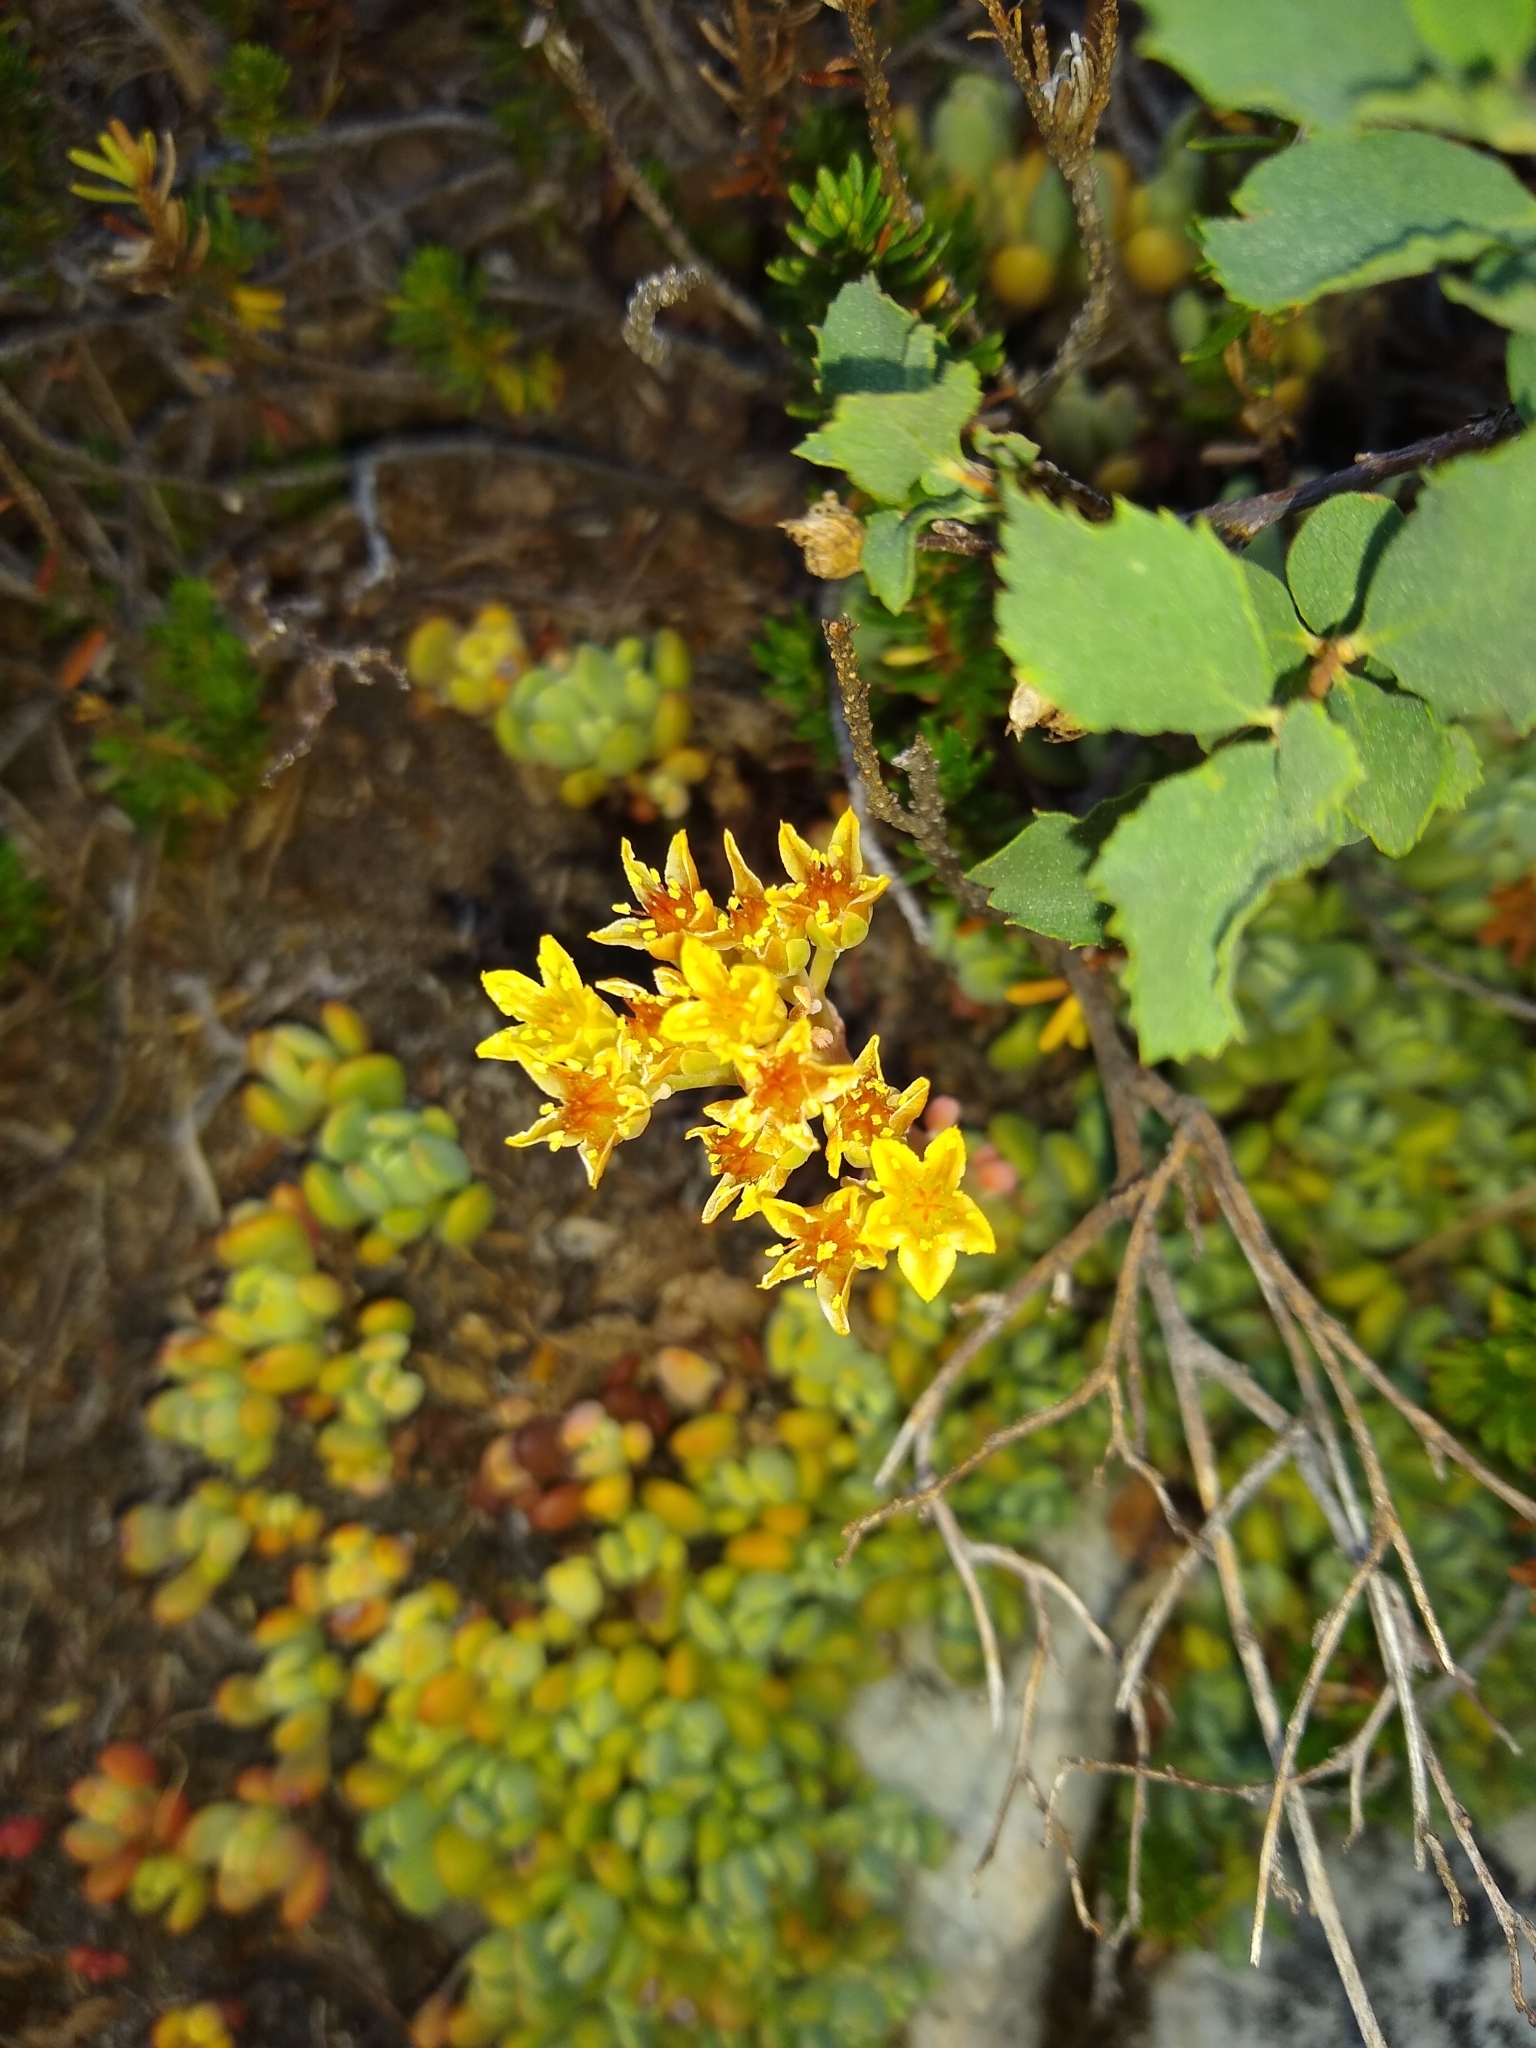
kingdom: Plantae
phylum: Tracheophyta
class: Magnoliopsida
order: Saxifragales
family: Crassulaceae
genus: Sedum
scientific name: Sedum obtusatum
